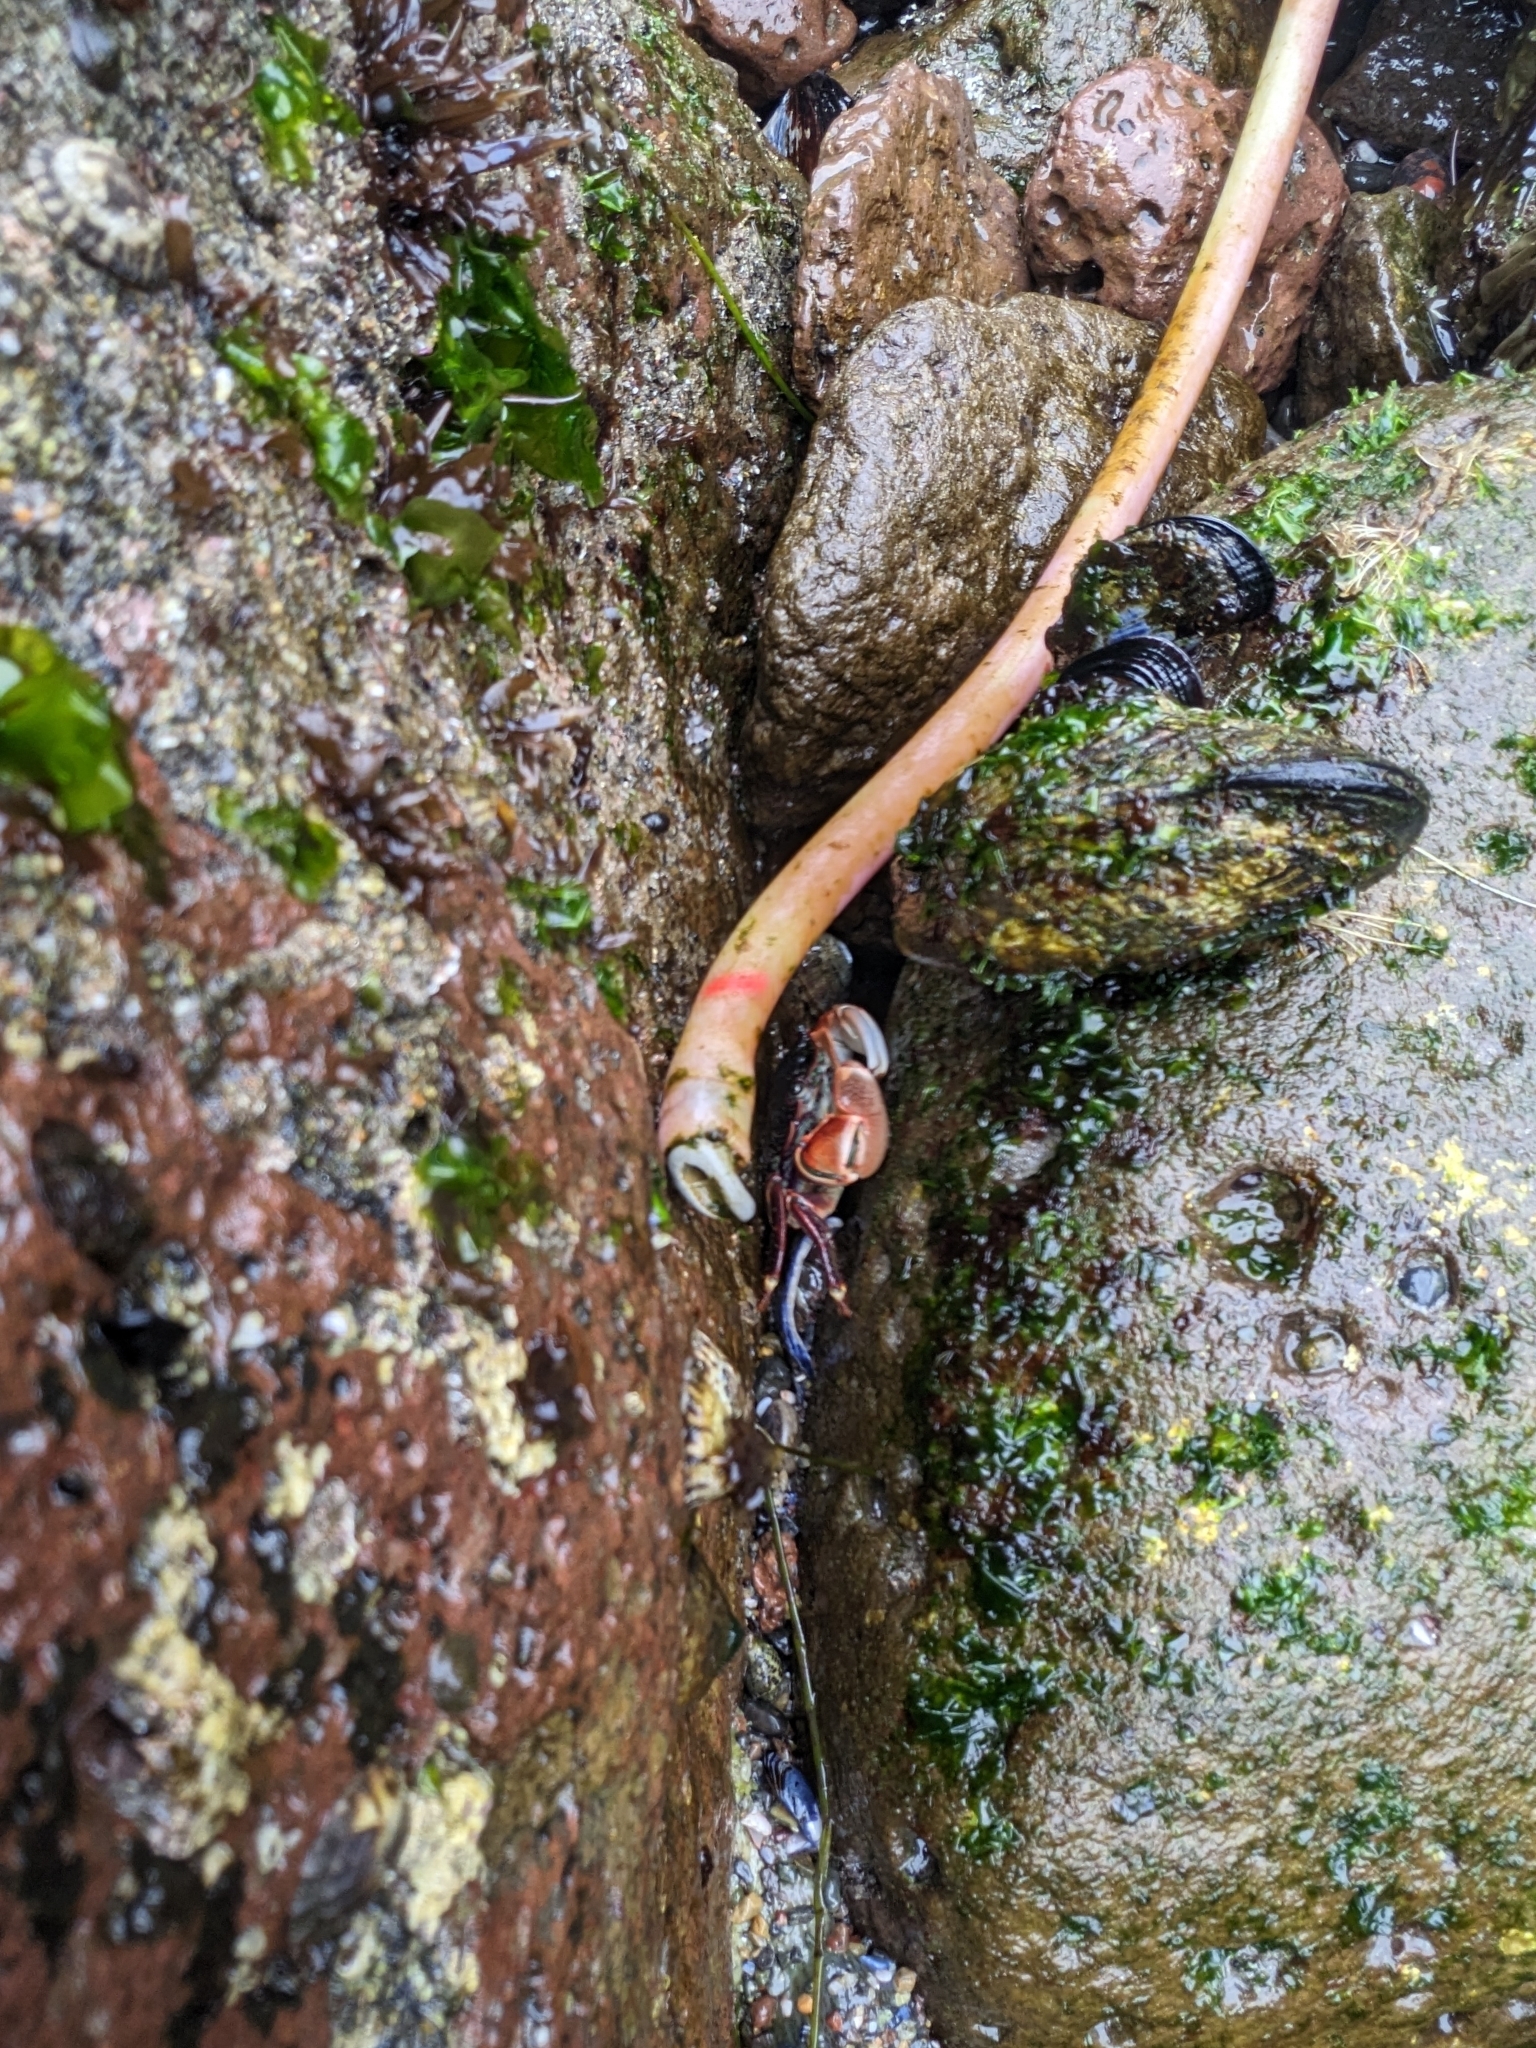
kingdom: Animalia
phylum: Arthropoda
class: Malacostraca
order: Decapoda
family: Grapsidae
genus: Pachygrapsus
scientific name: Pachygrapsus crassipes
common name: Striped shore crab
